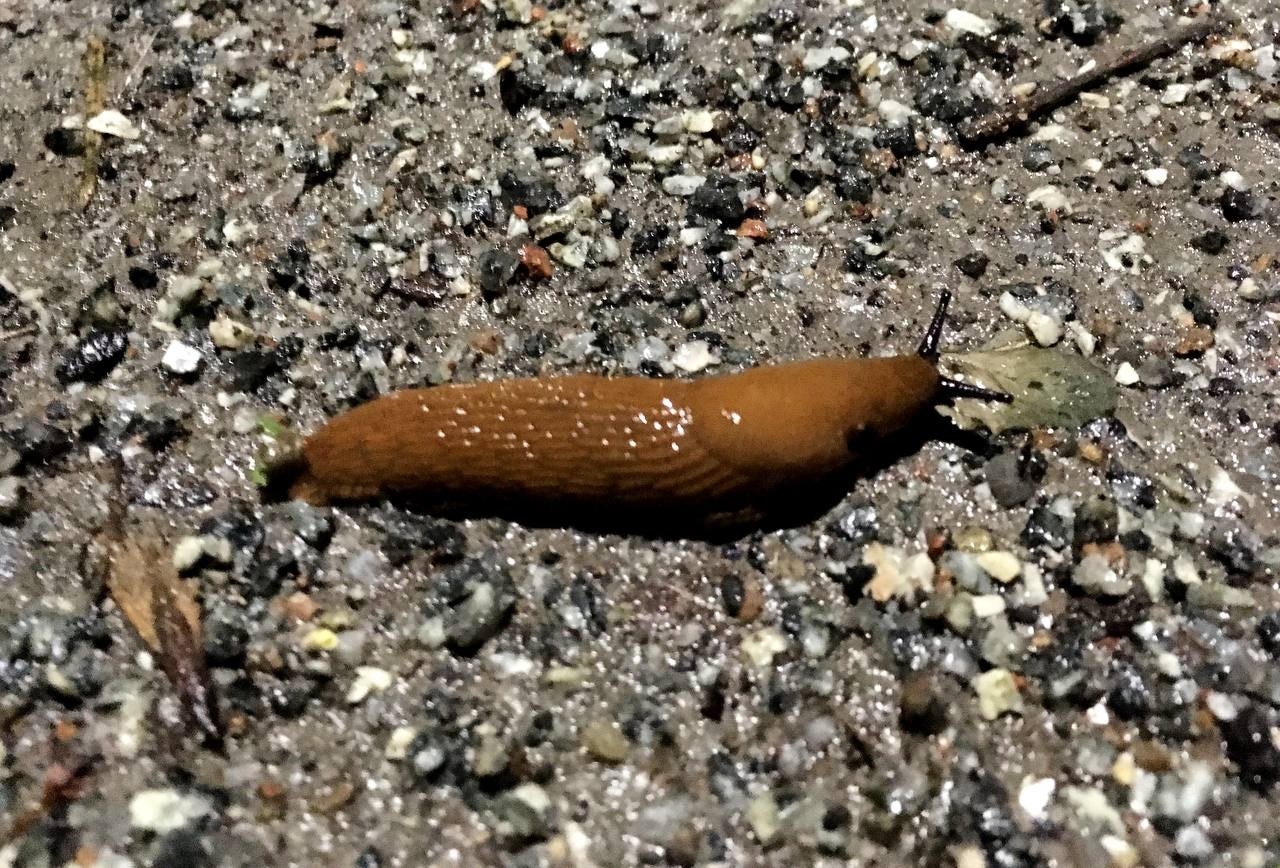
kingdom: Animalia
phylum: Mollusca
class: Gastropoda
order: Stylommatophora
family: Arionidae
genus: Arion
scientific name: Arion vulgaris
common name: Lusitanian slug
